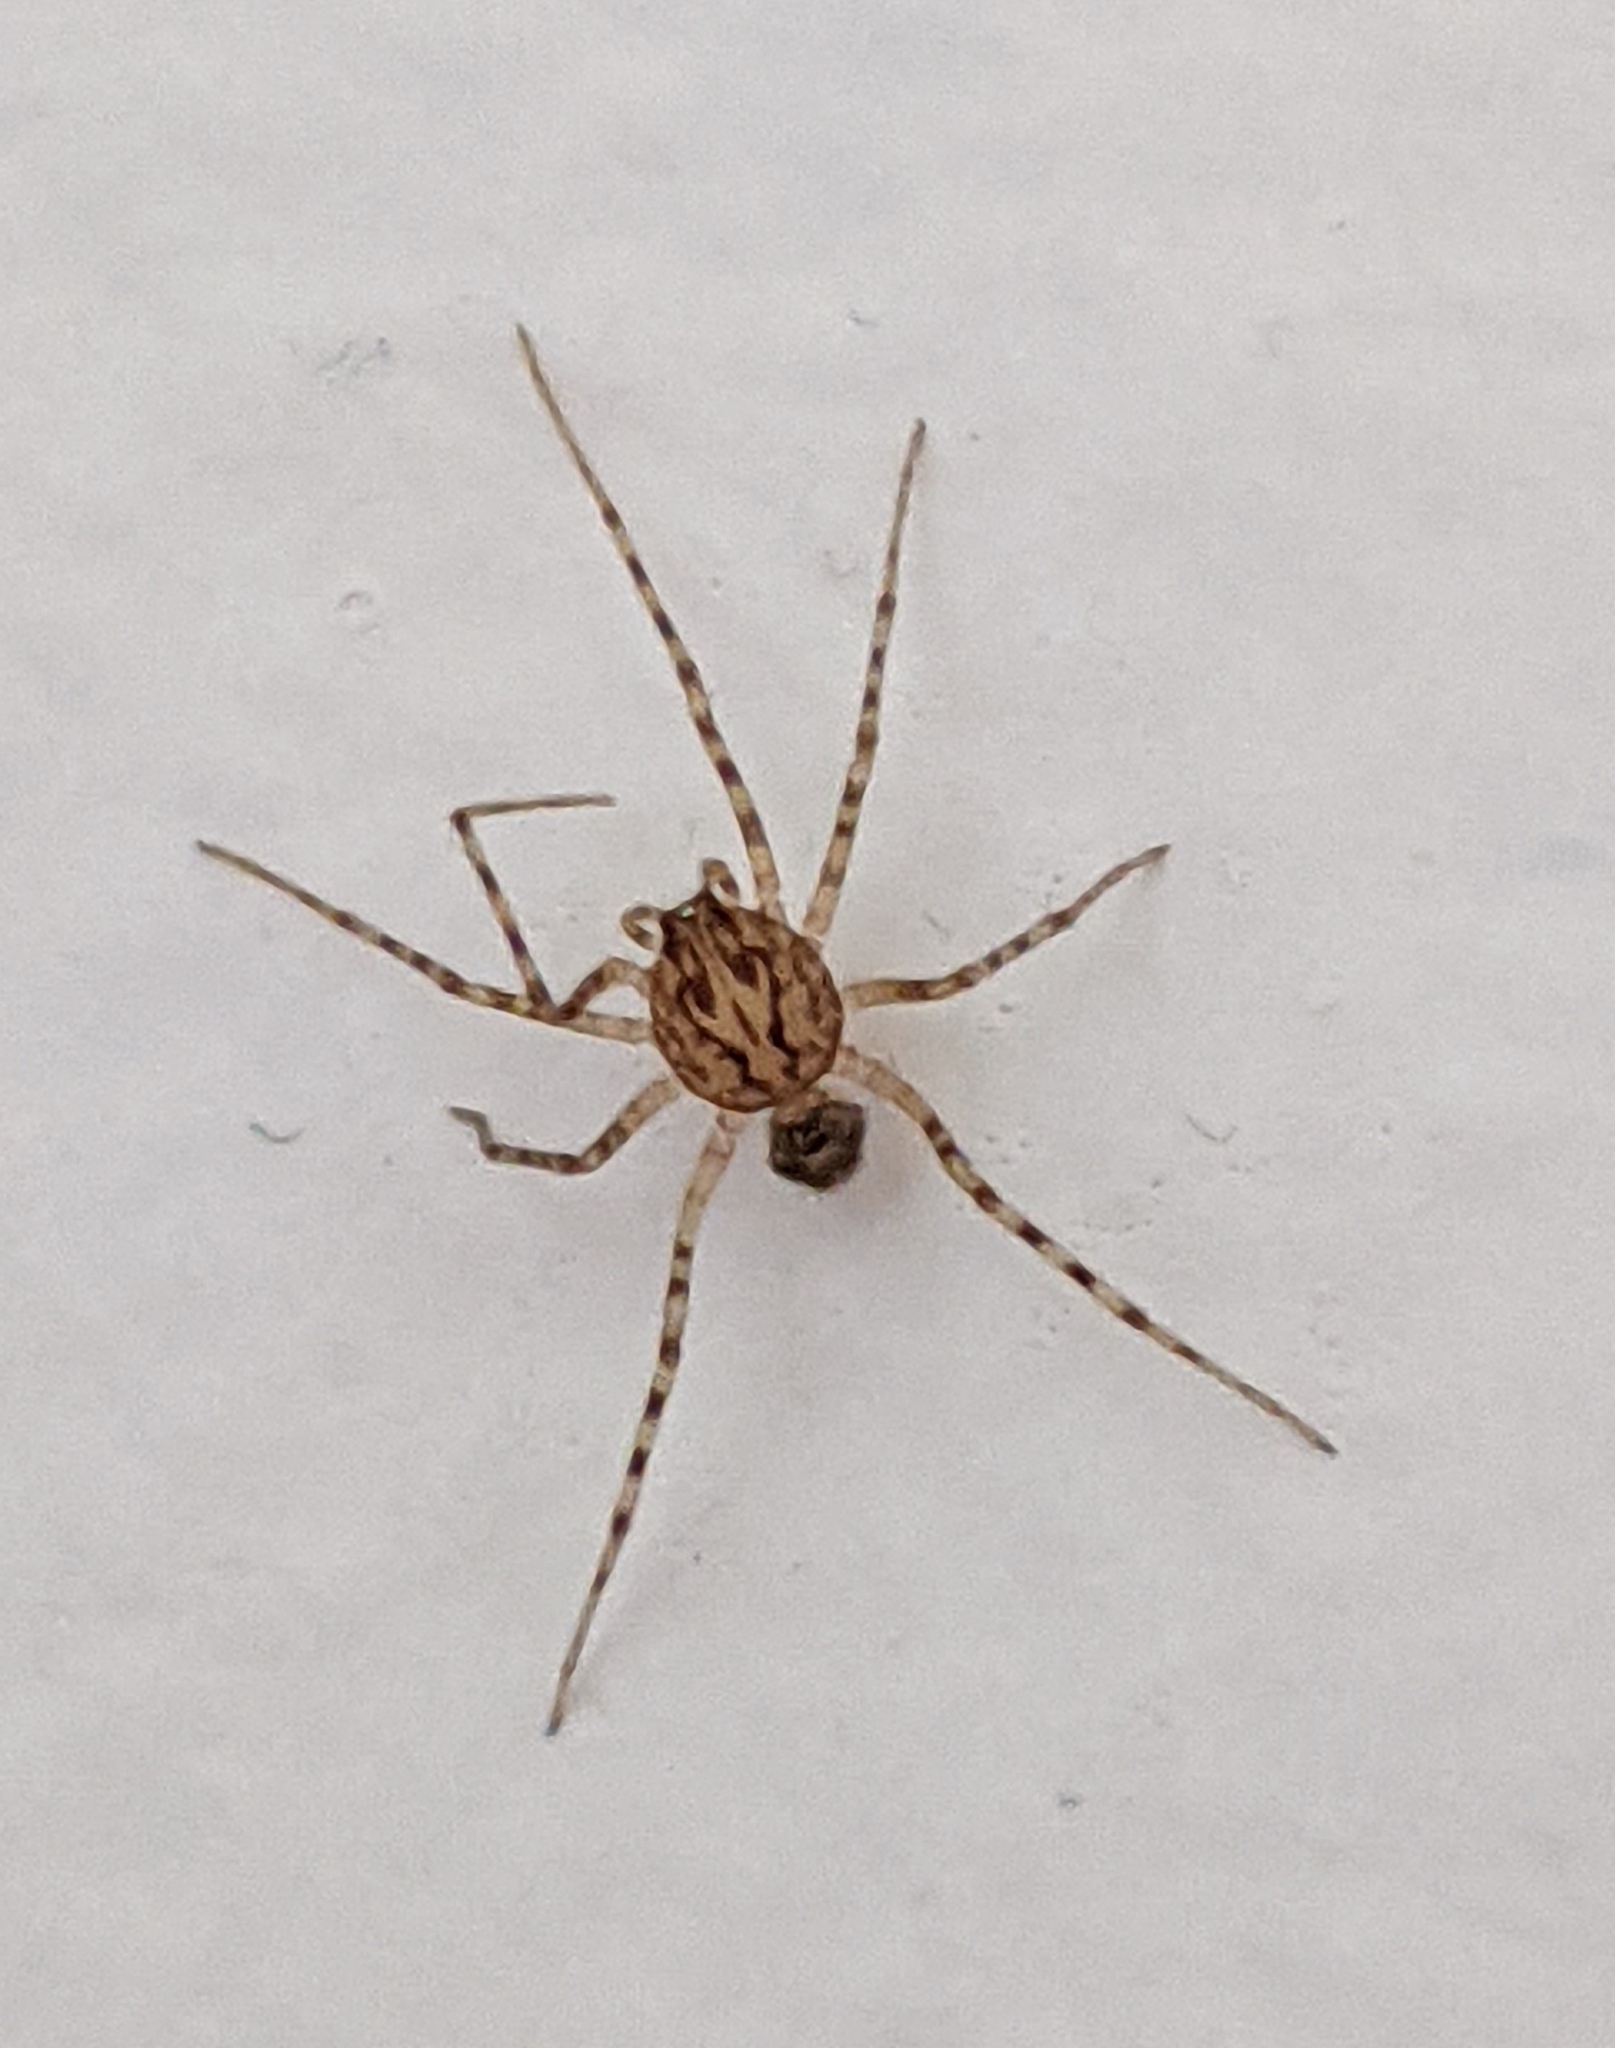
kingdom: Animalia
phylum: Arthropoda
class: Arachnida
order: Araneae
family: Scytodidae
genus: Scytodes
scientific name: Scytodes thoracica
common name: Spitting spider
